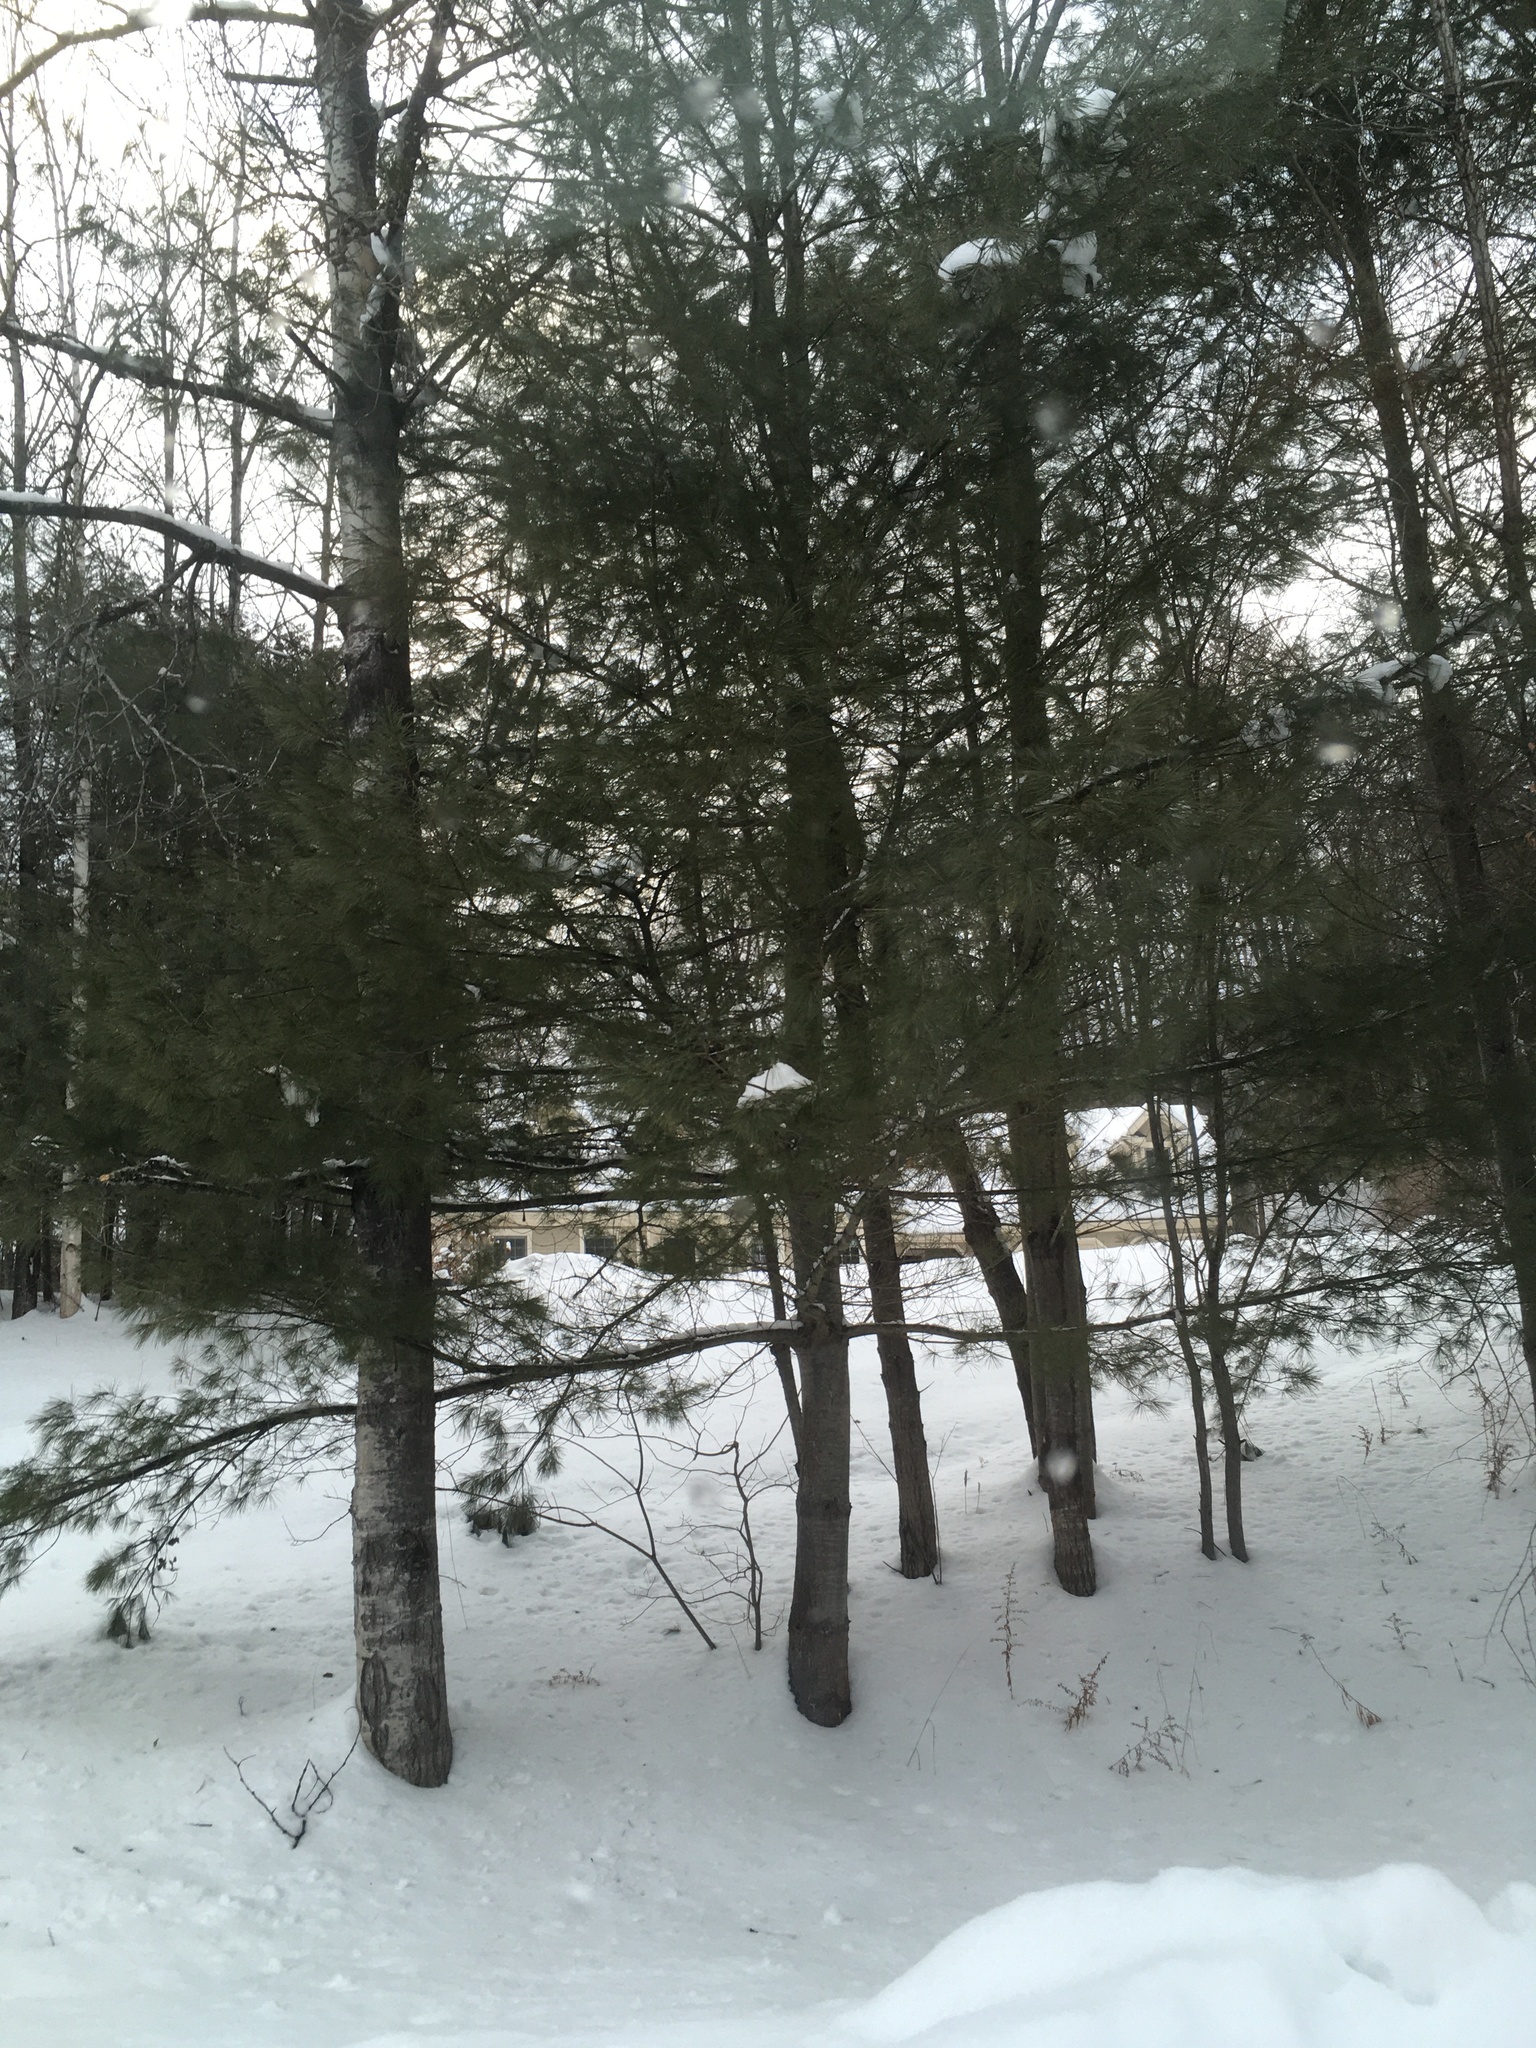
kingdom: Plantae
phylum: Tracheophyta
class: Pinopsida
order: Pinales
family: Pinaceae
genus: Pinus
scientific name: Pinus strobus
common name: Weymouth pine
